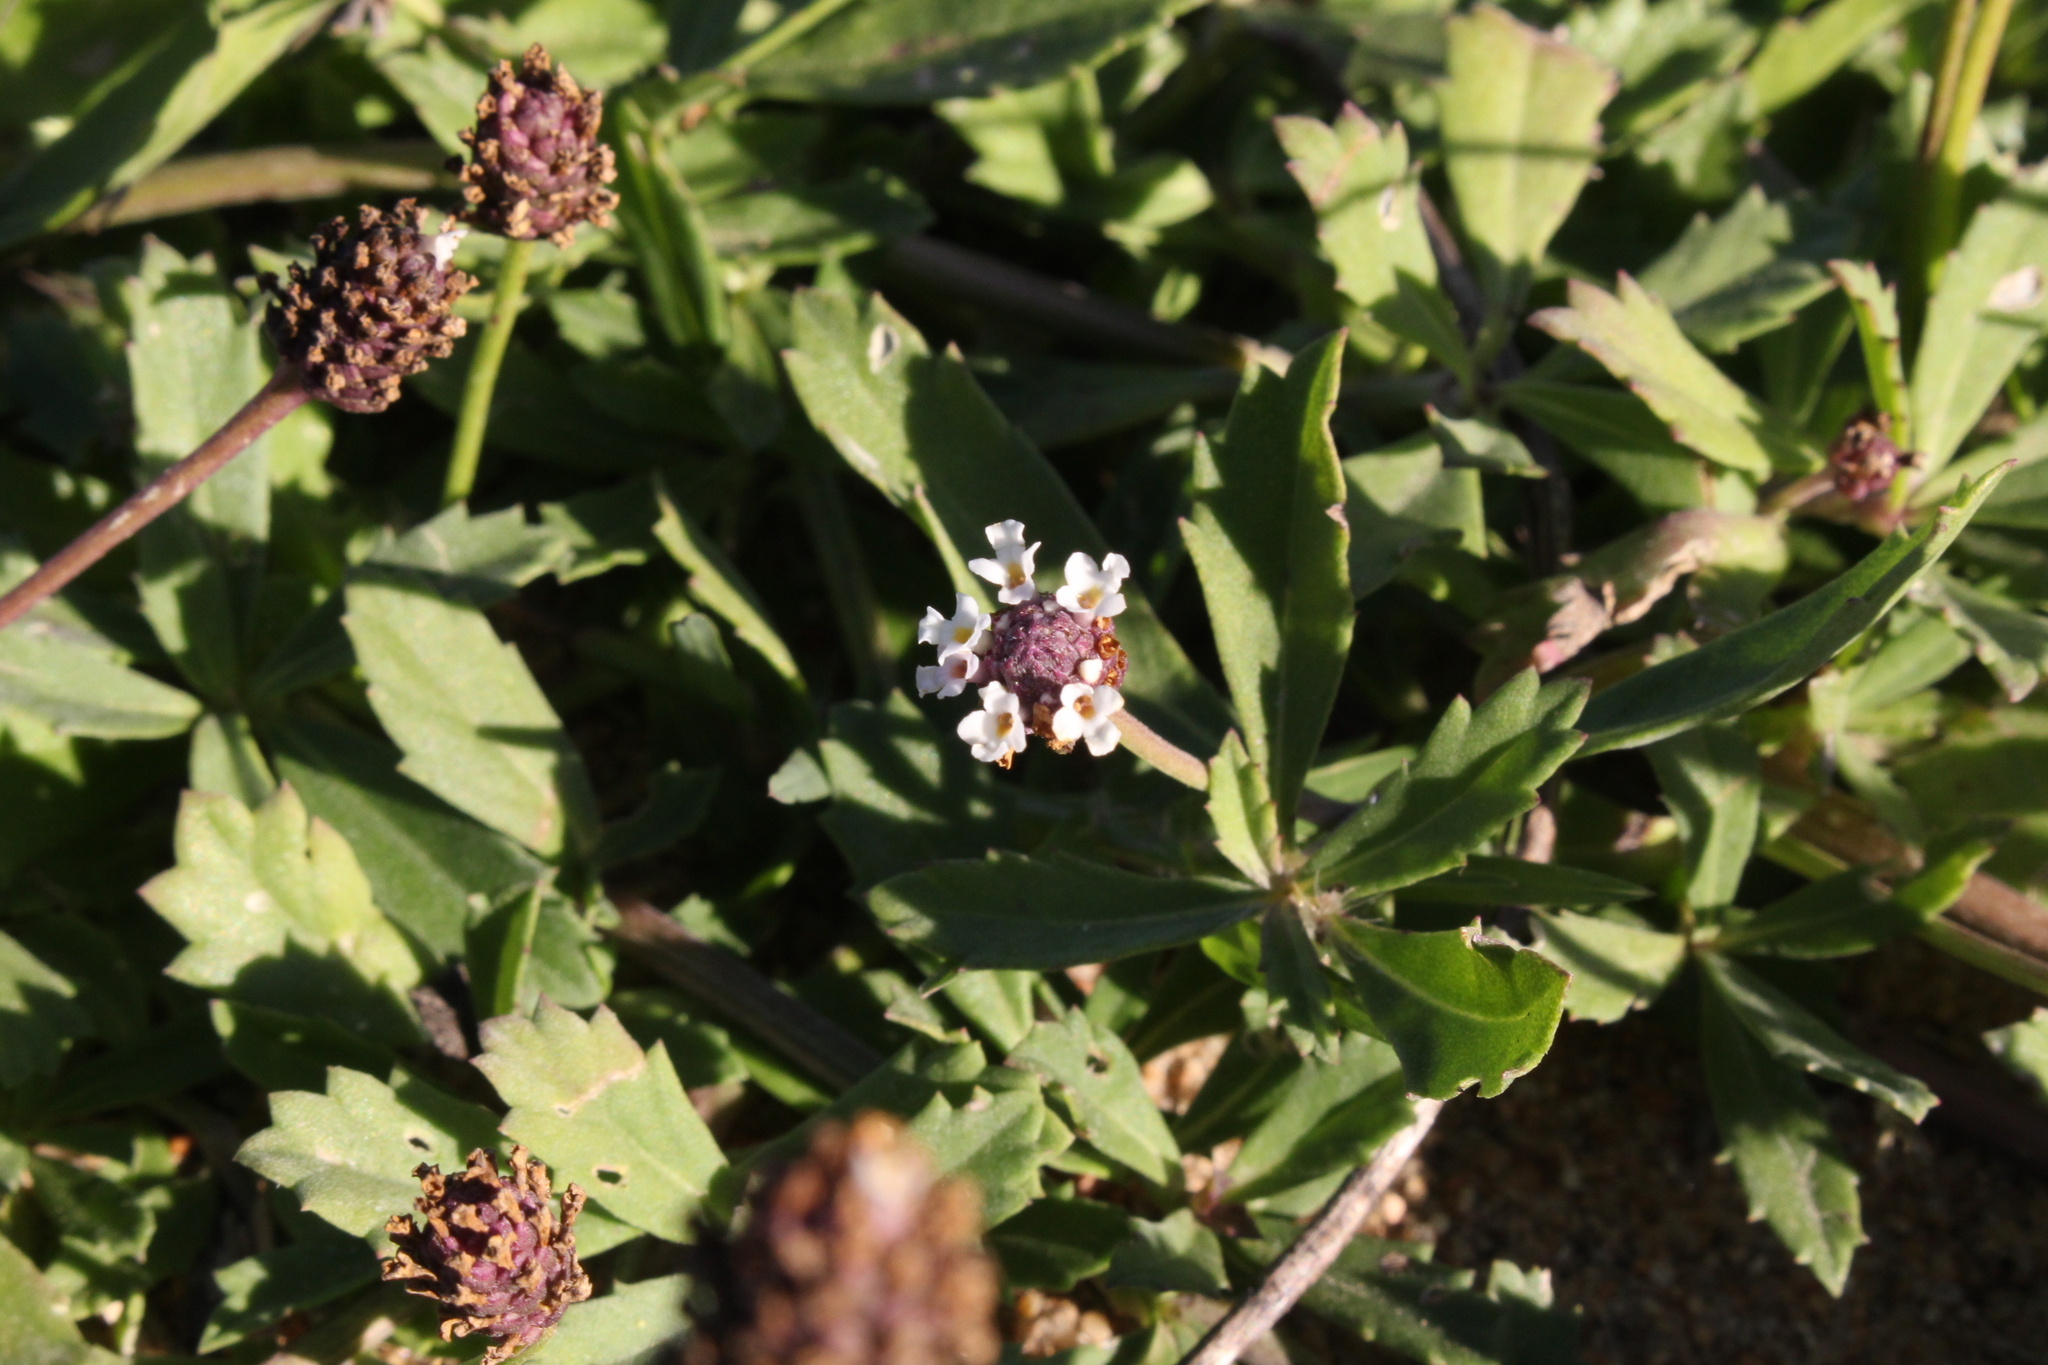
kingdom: Plantae
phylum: Tracheophyta
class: Magnoliopsida
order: Lamiales
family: Verbenaceae
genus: Phyla
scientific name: Phyla nodiflora
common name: Frogfruit
